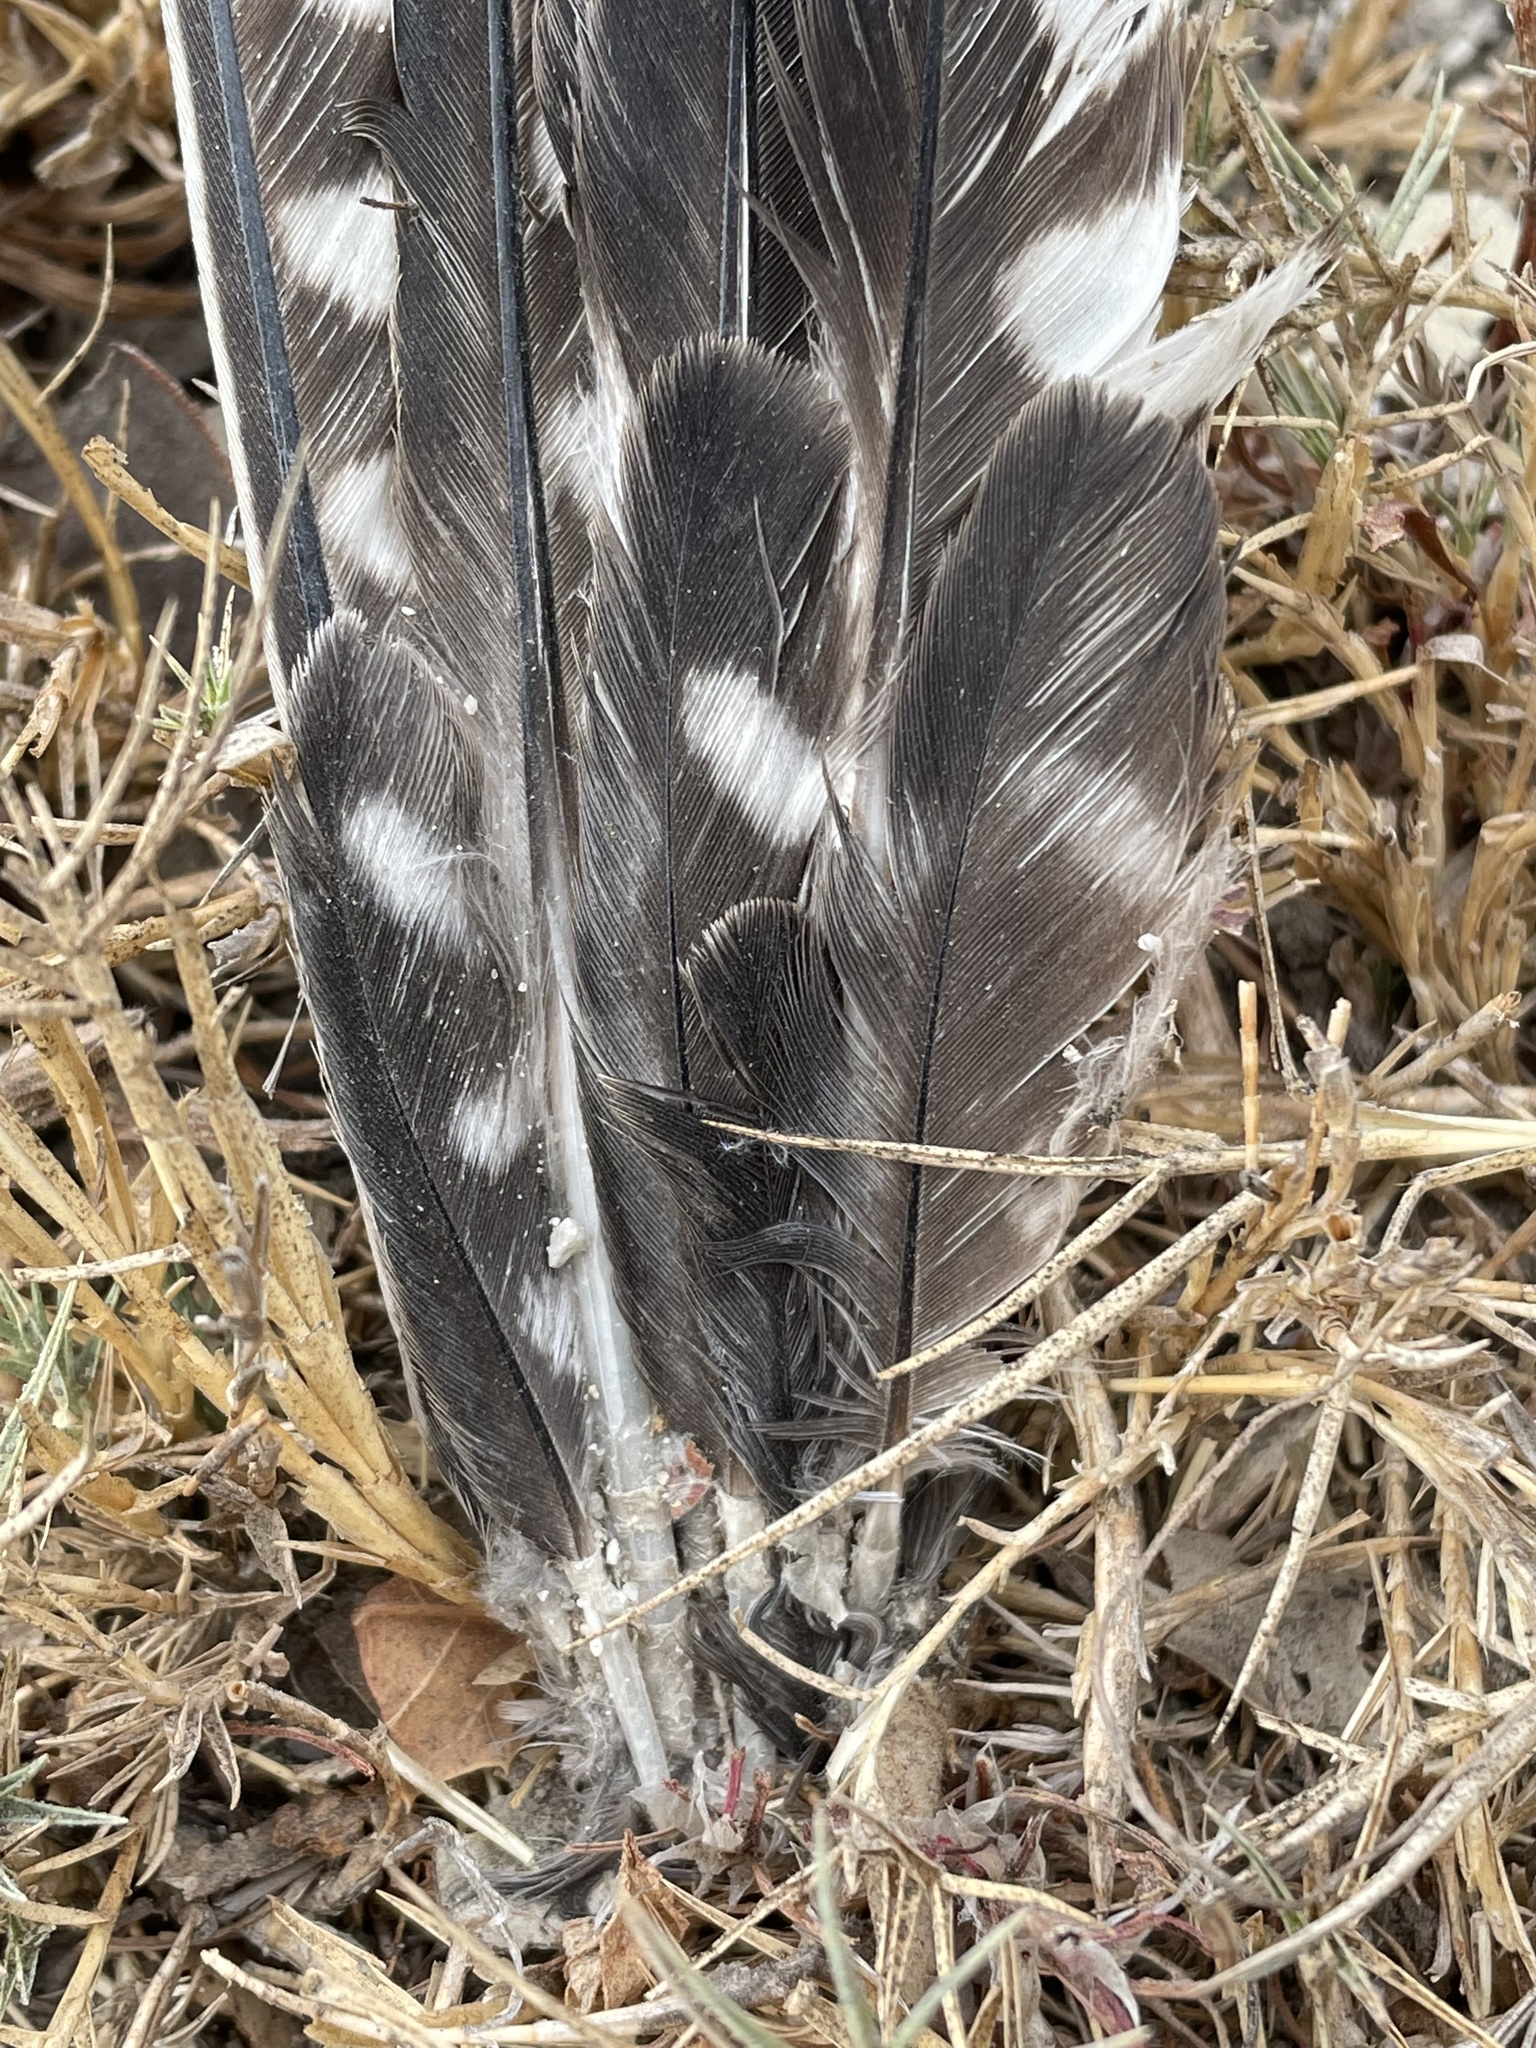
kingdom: Animalia
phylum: Chordata
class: Aves
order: Falconiformes
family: Falconidae
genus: Falco
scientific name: Falco sparverius
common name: American kestrel
